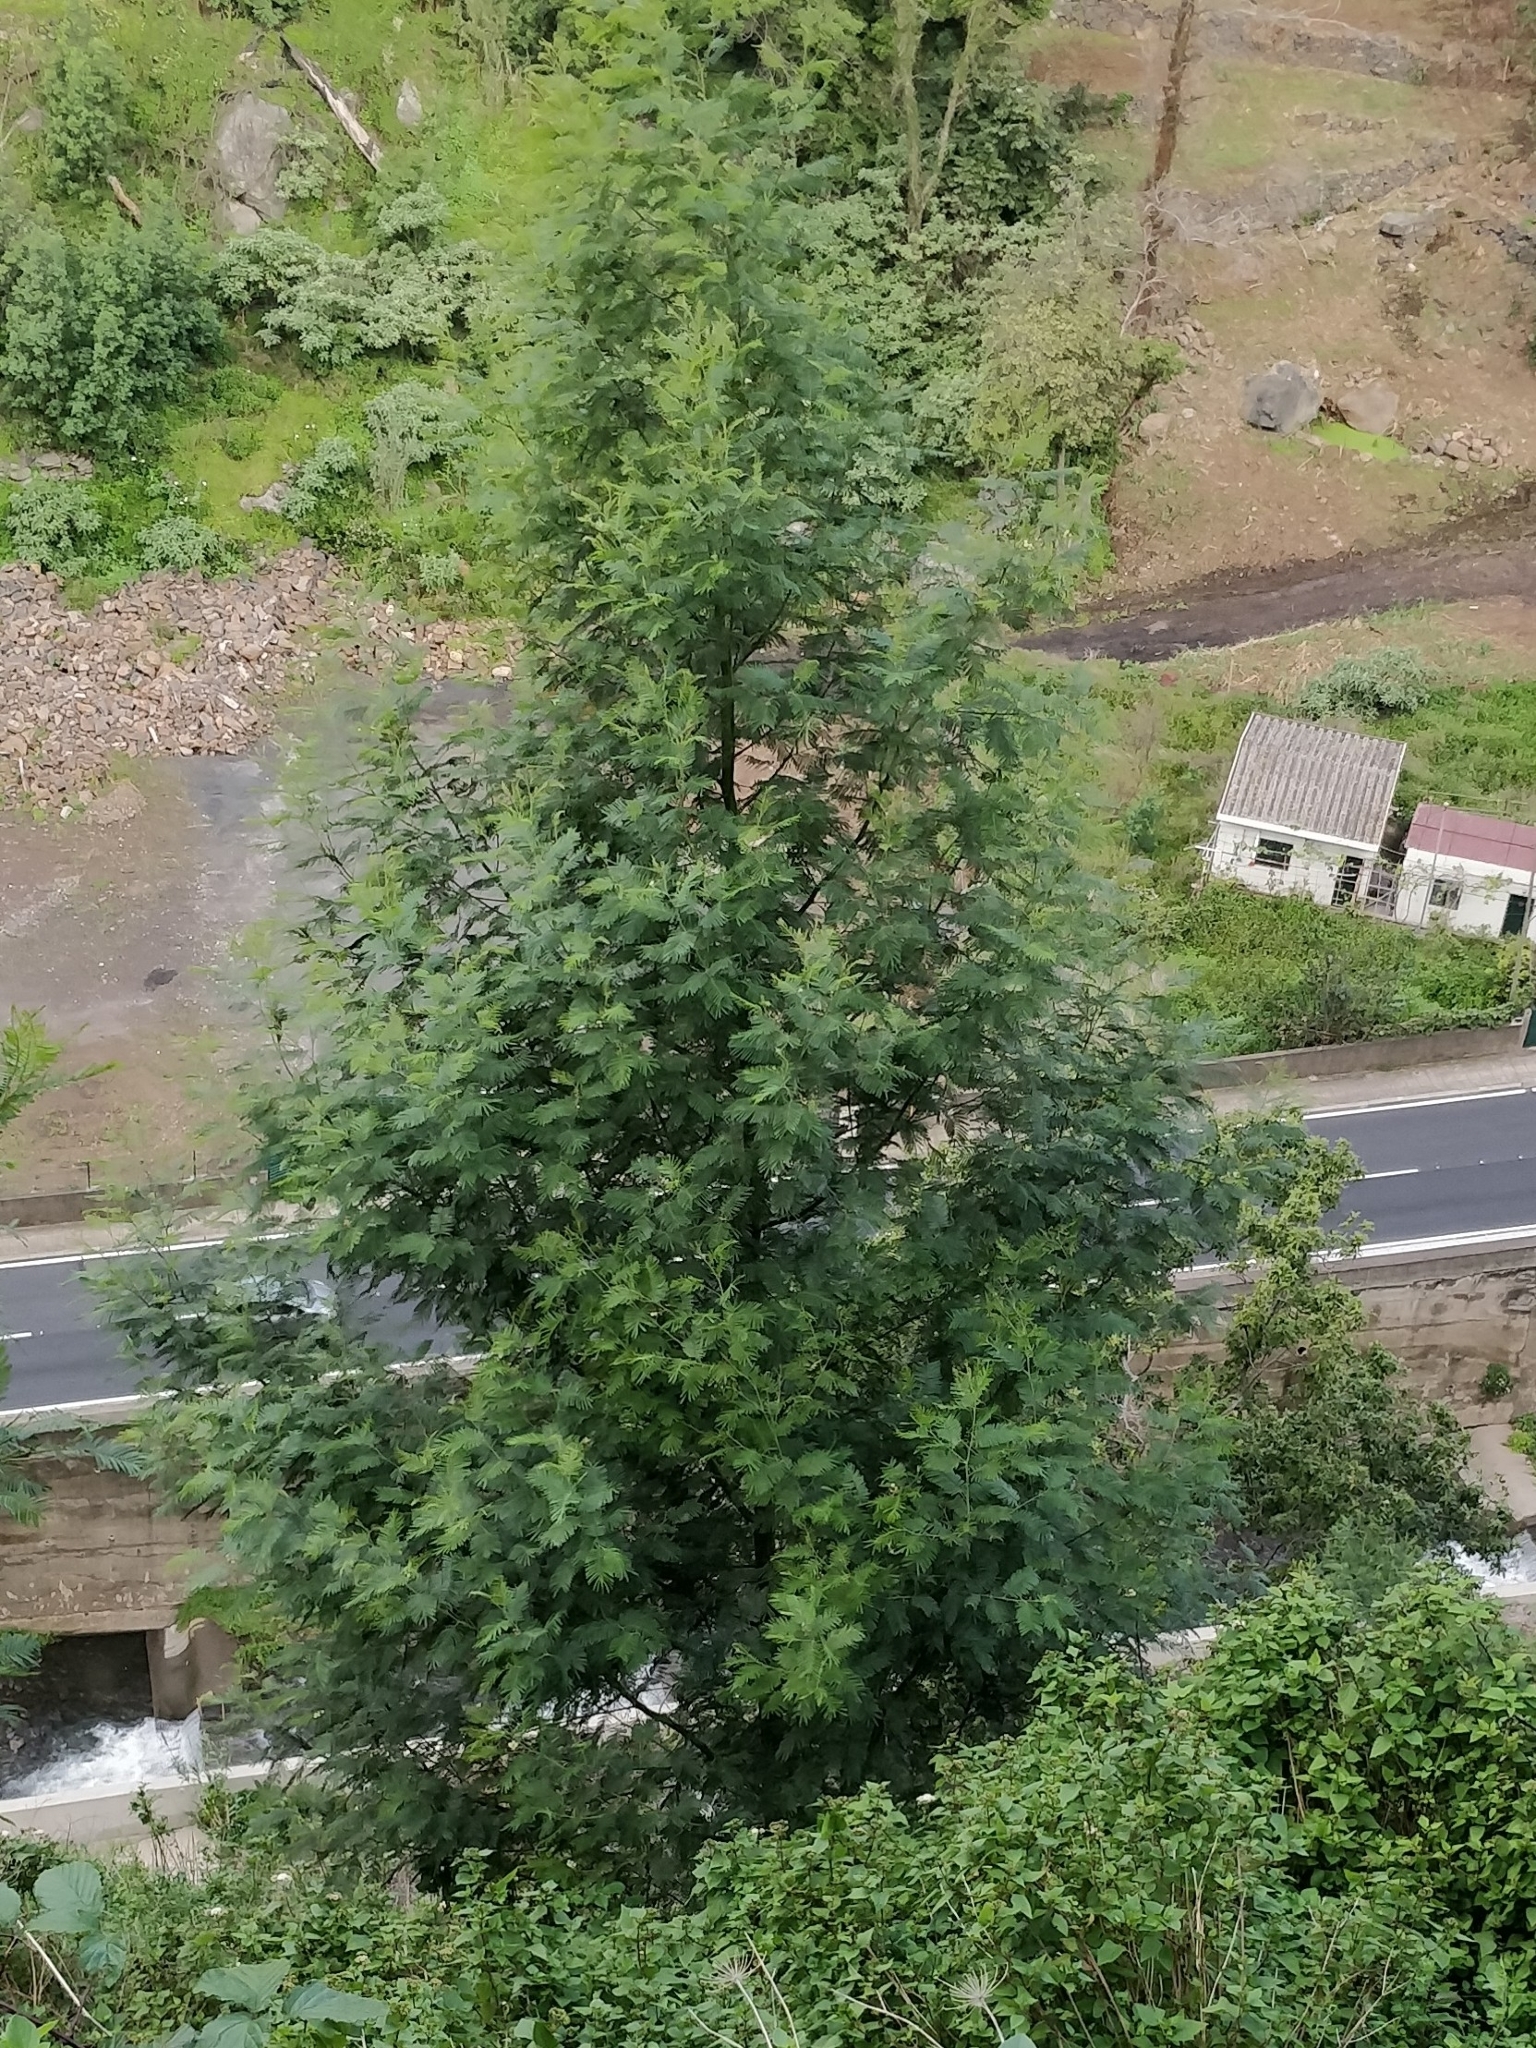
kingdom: Plantae
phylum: Tracheophyta
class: Magnoliopsida
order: Fabales
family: Fabaceae
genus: Acacia
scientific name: Acacia mearnsii
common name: Black wattle
